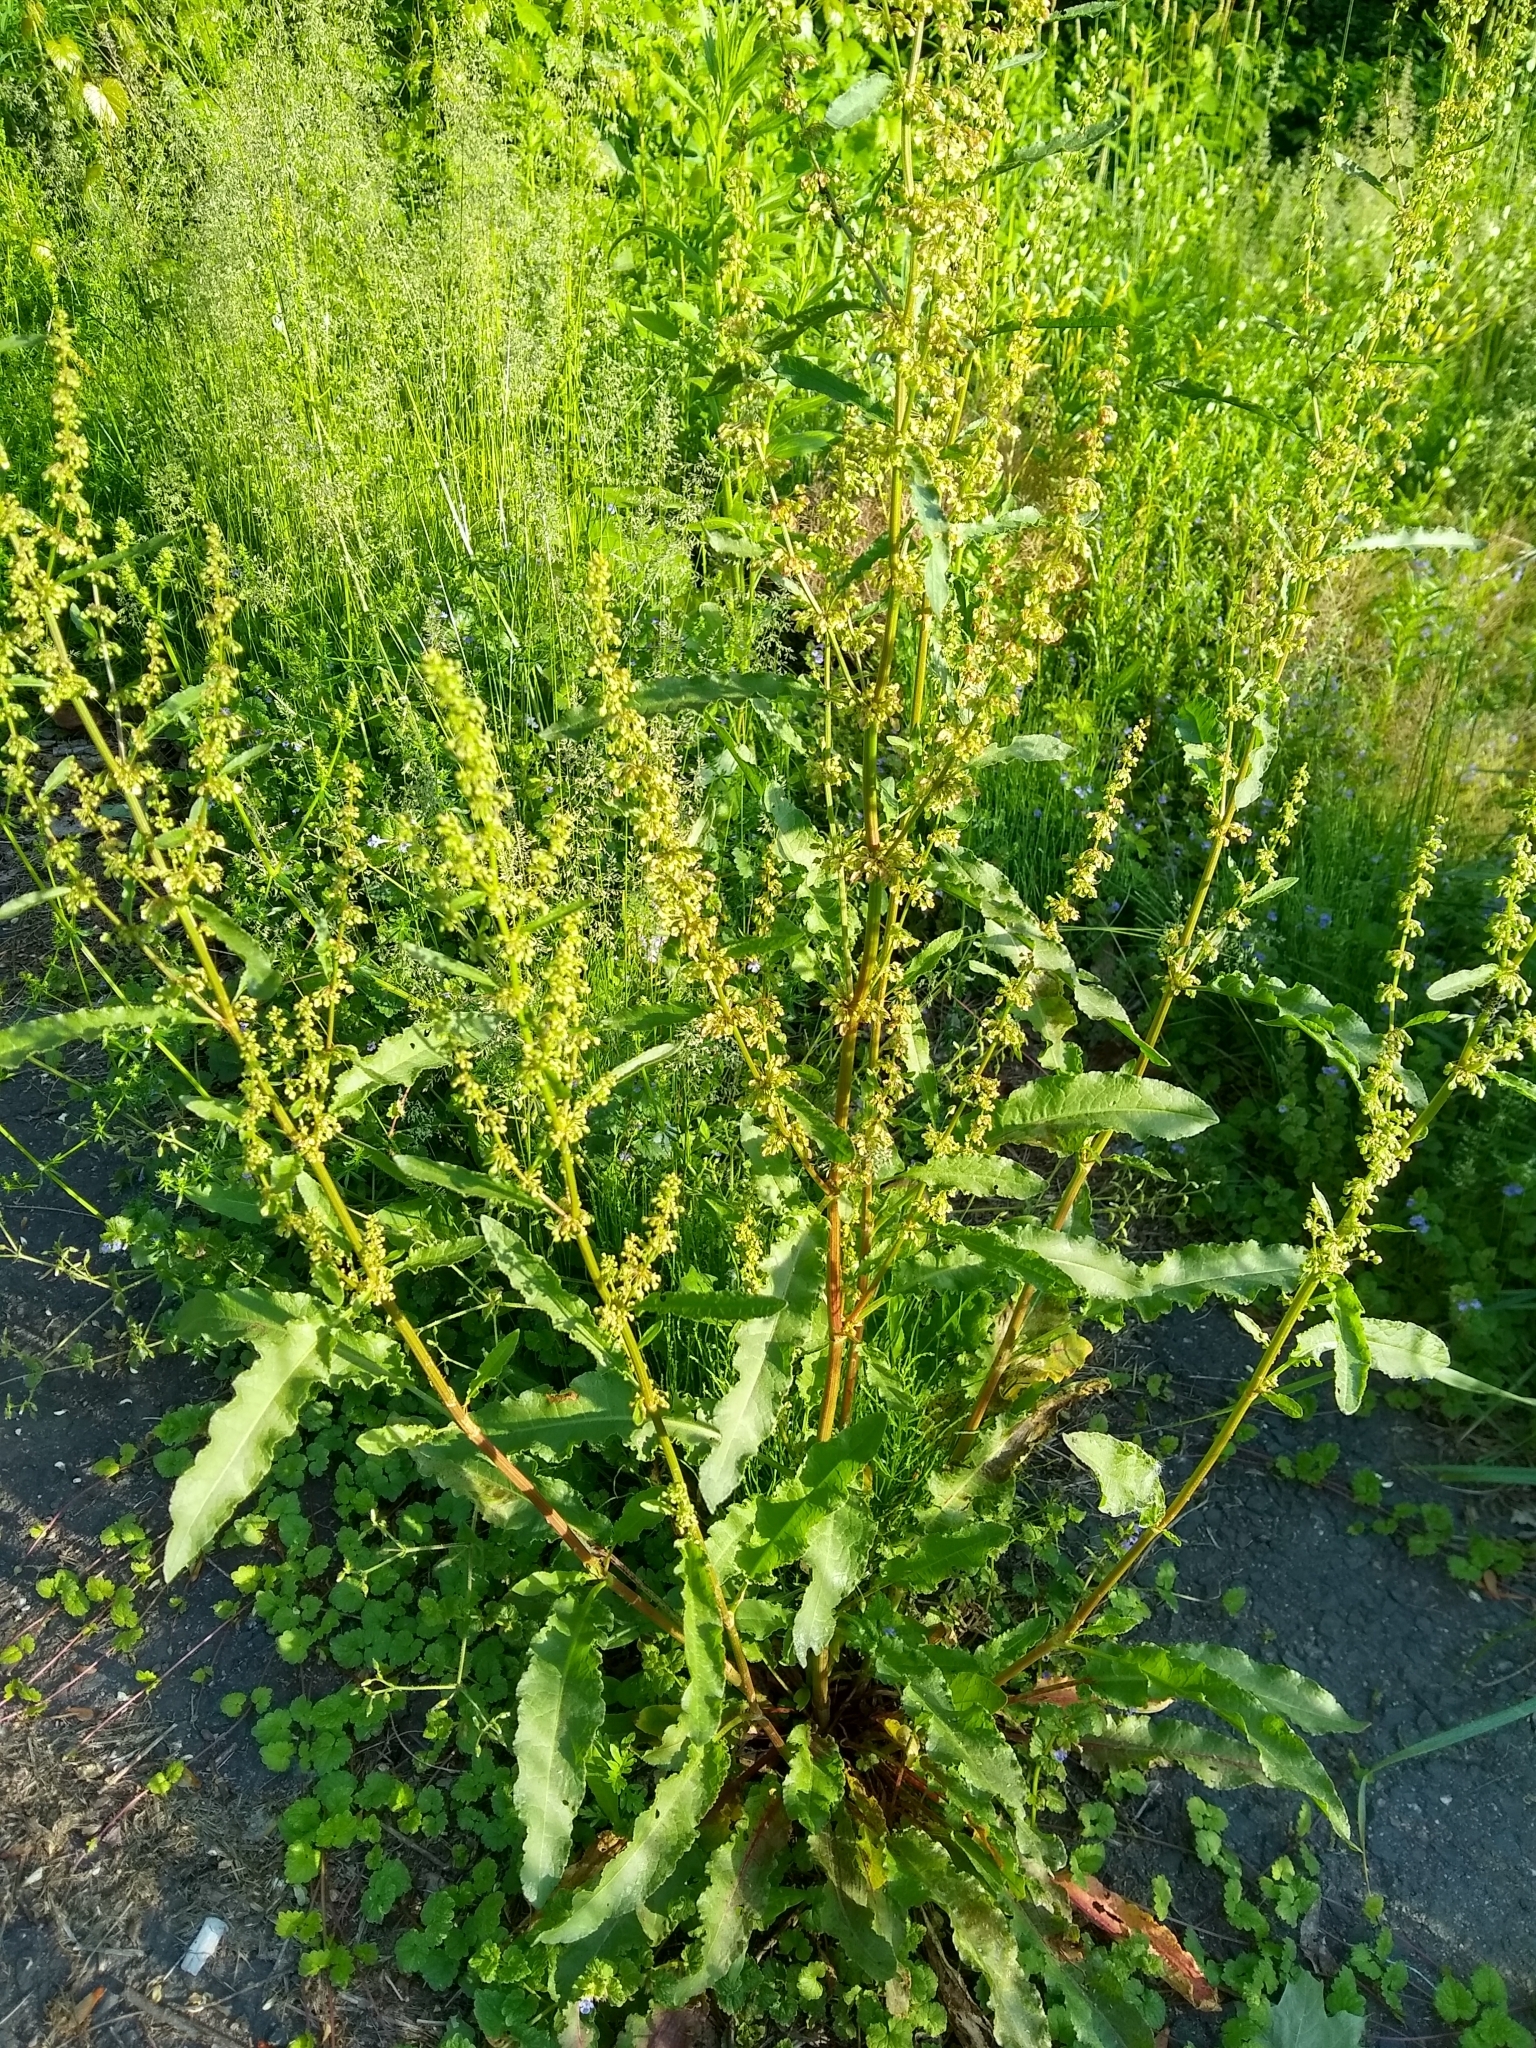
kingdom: Plantae
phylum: Tracheophyta
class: Magnoliopsida
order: Caryophyllales
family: Polygonaceae
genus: Rumex
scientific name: Rumex crispus
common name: Curled dock
